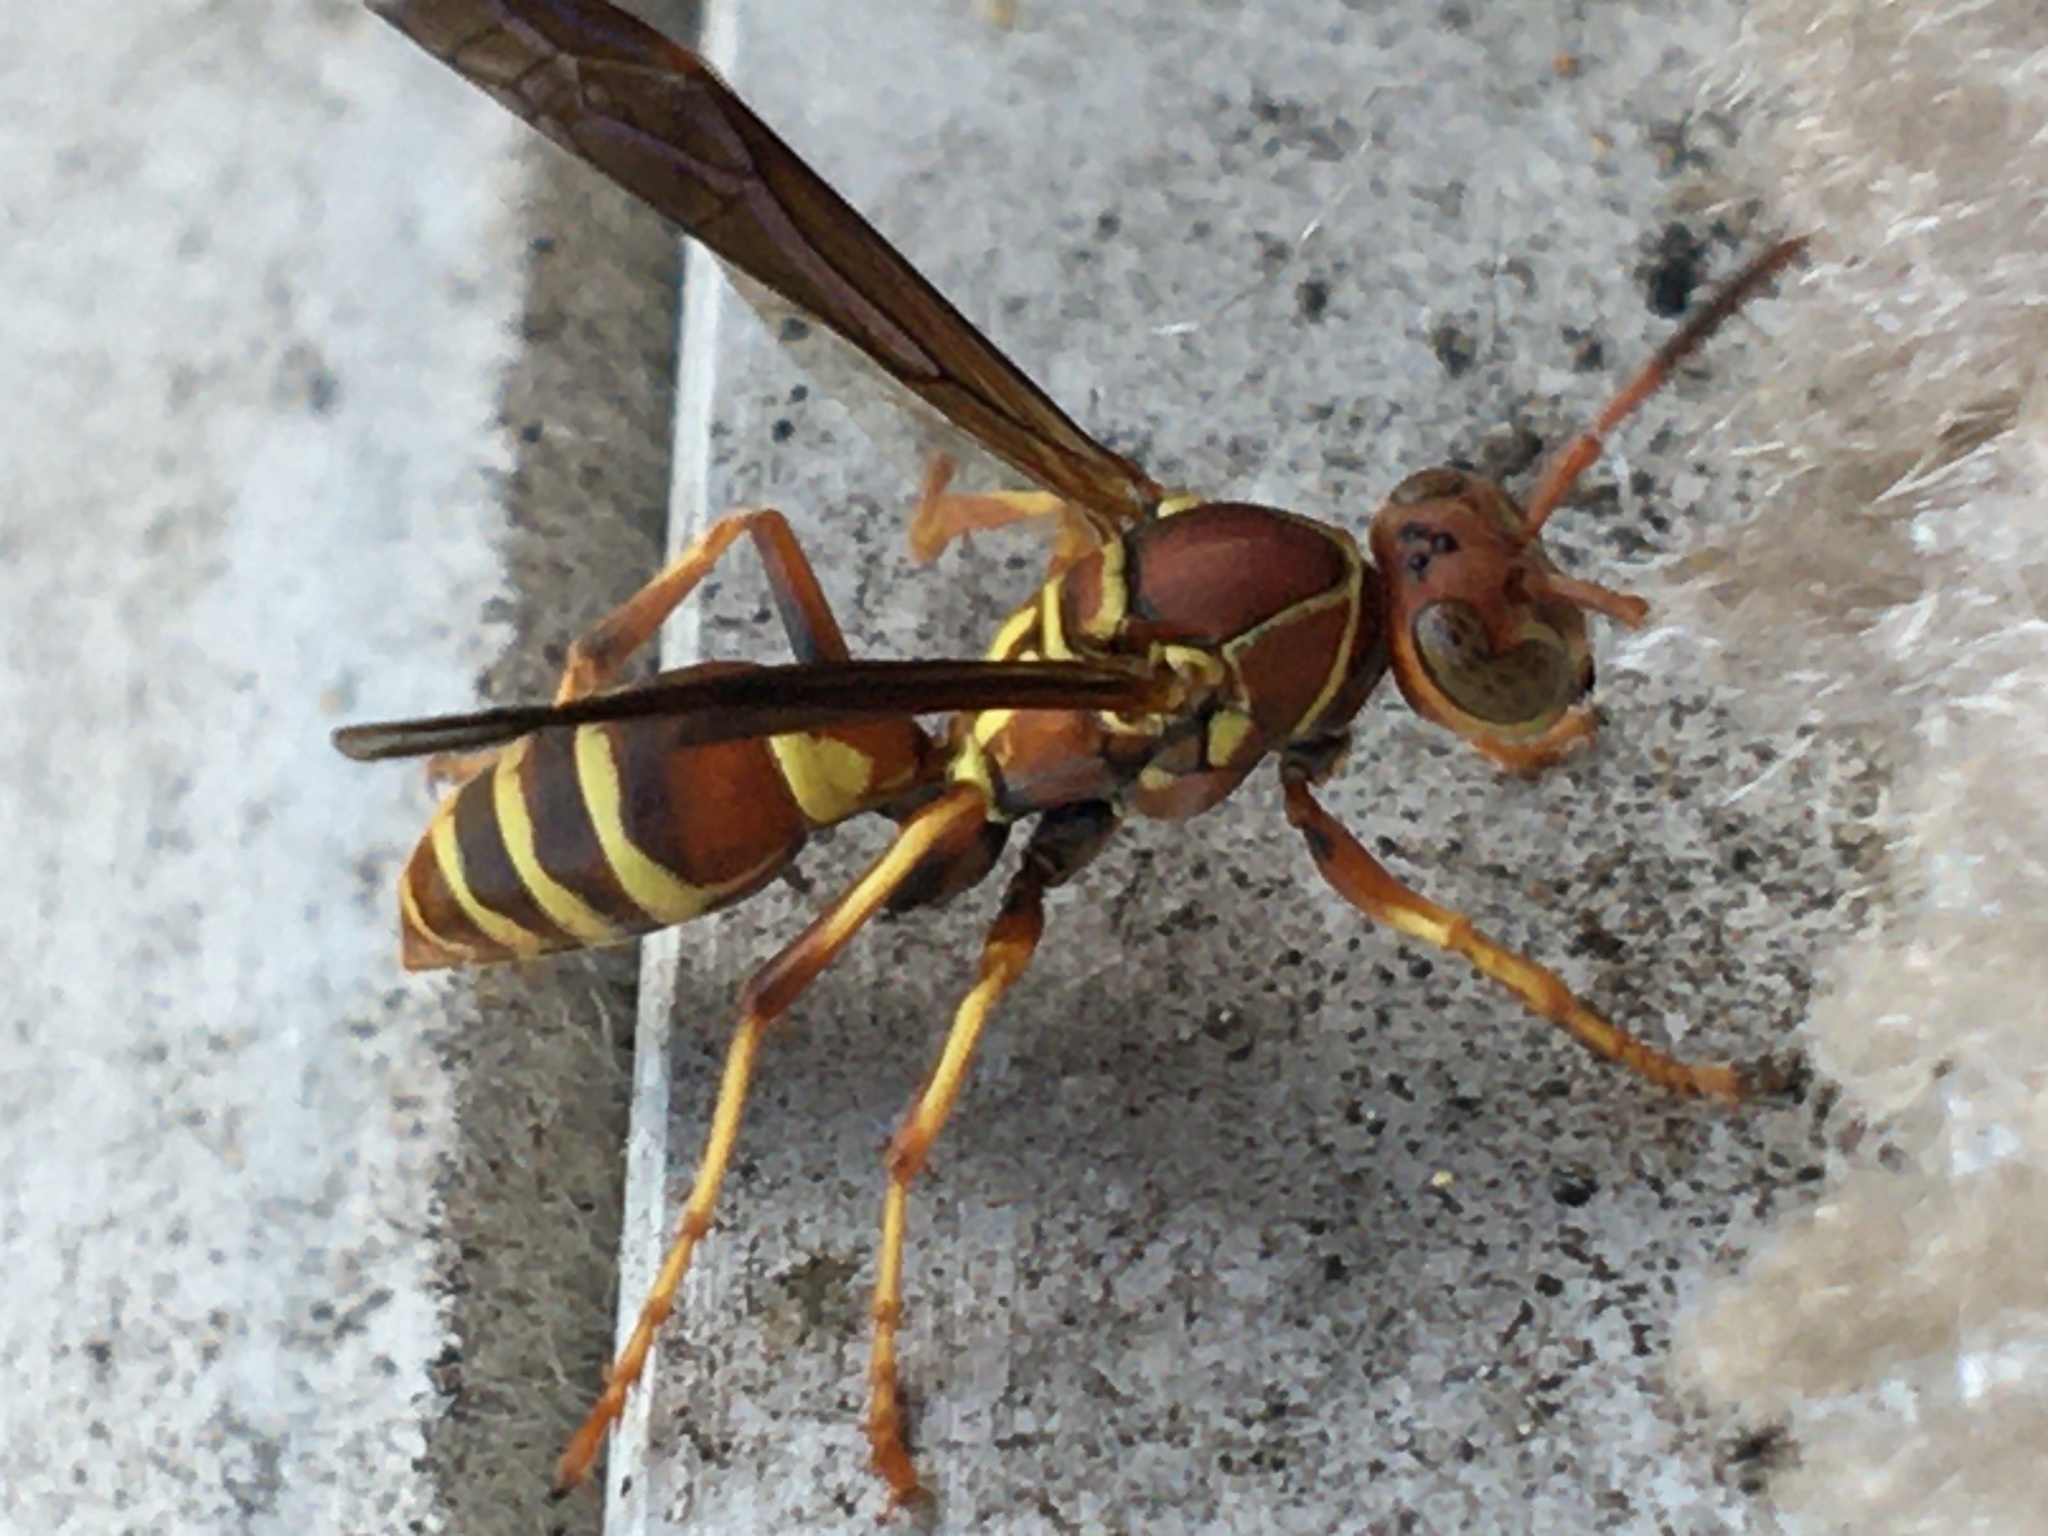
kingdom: Animalia
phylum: Arthropoda
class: Insecta
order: Hymenoptera
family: Eumenidae
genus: Polistes
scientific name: Polistes dorsalis
